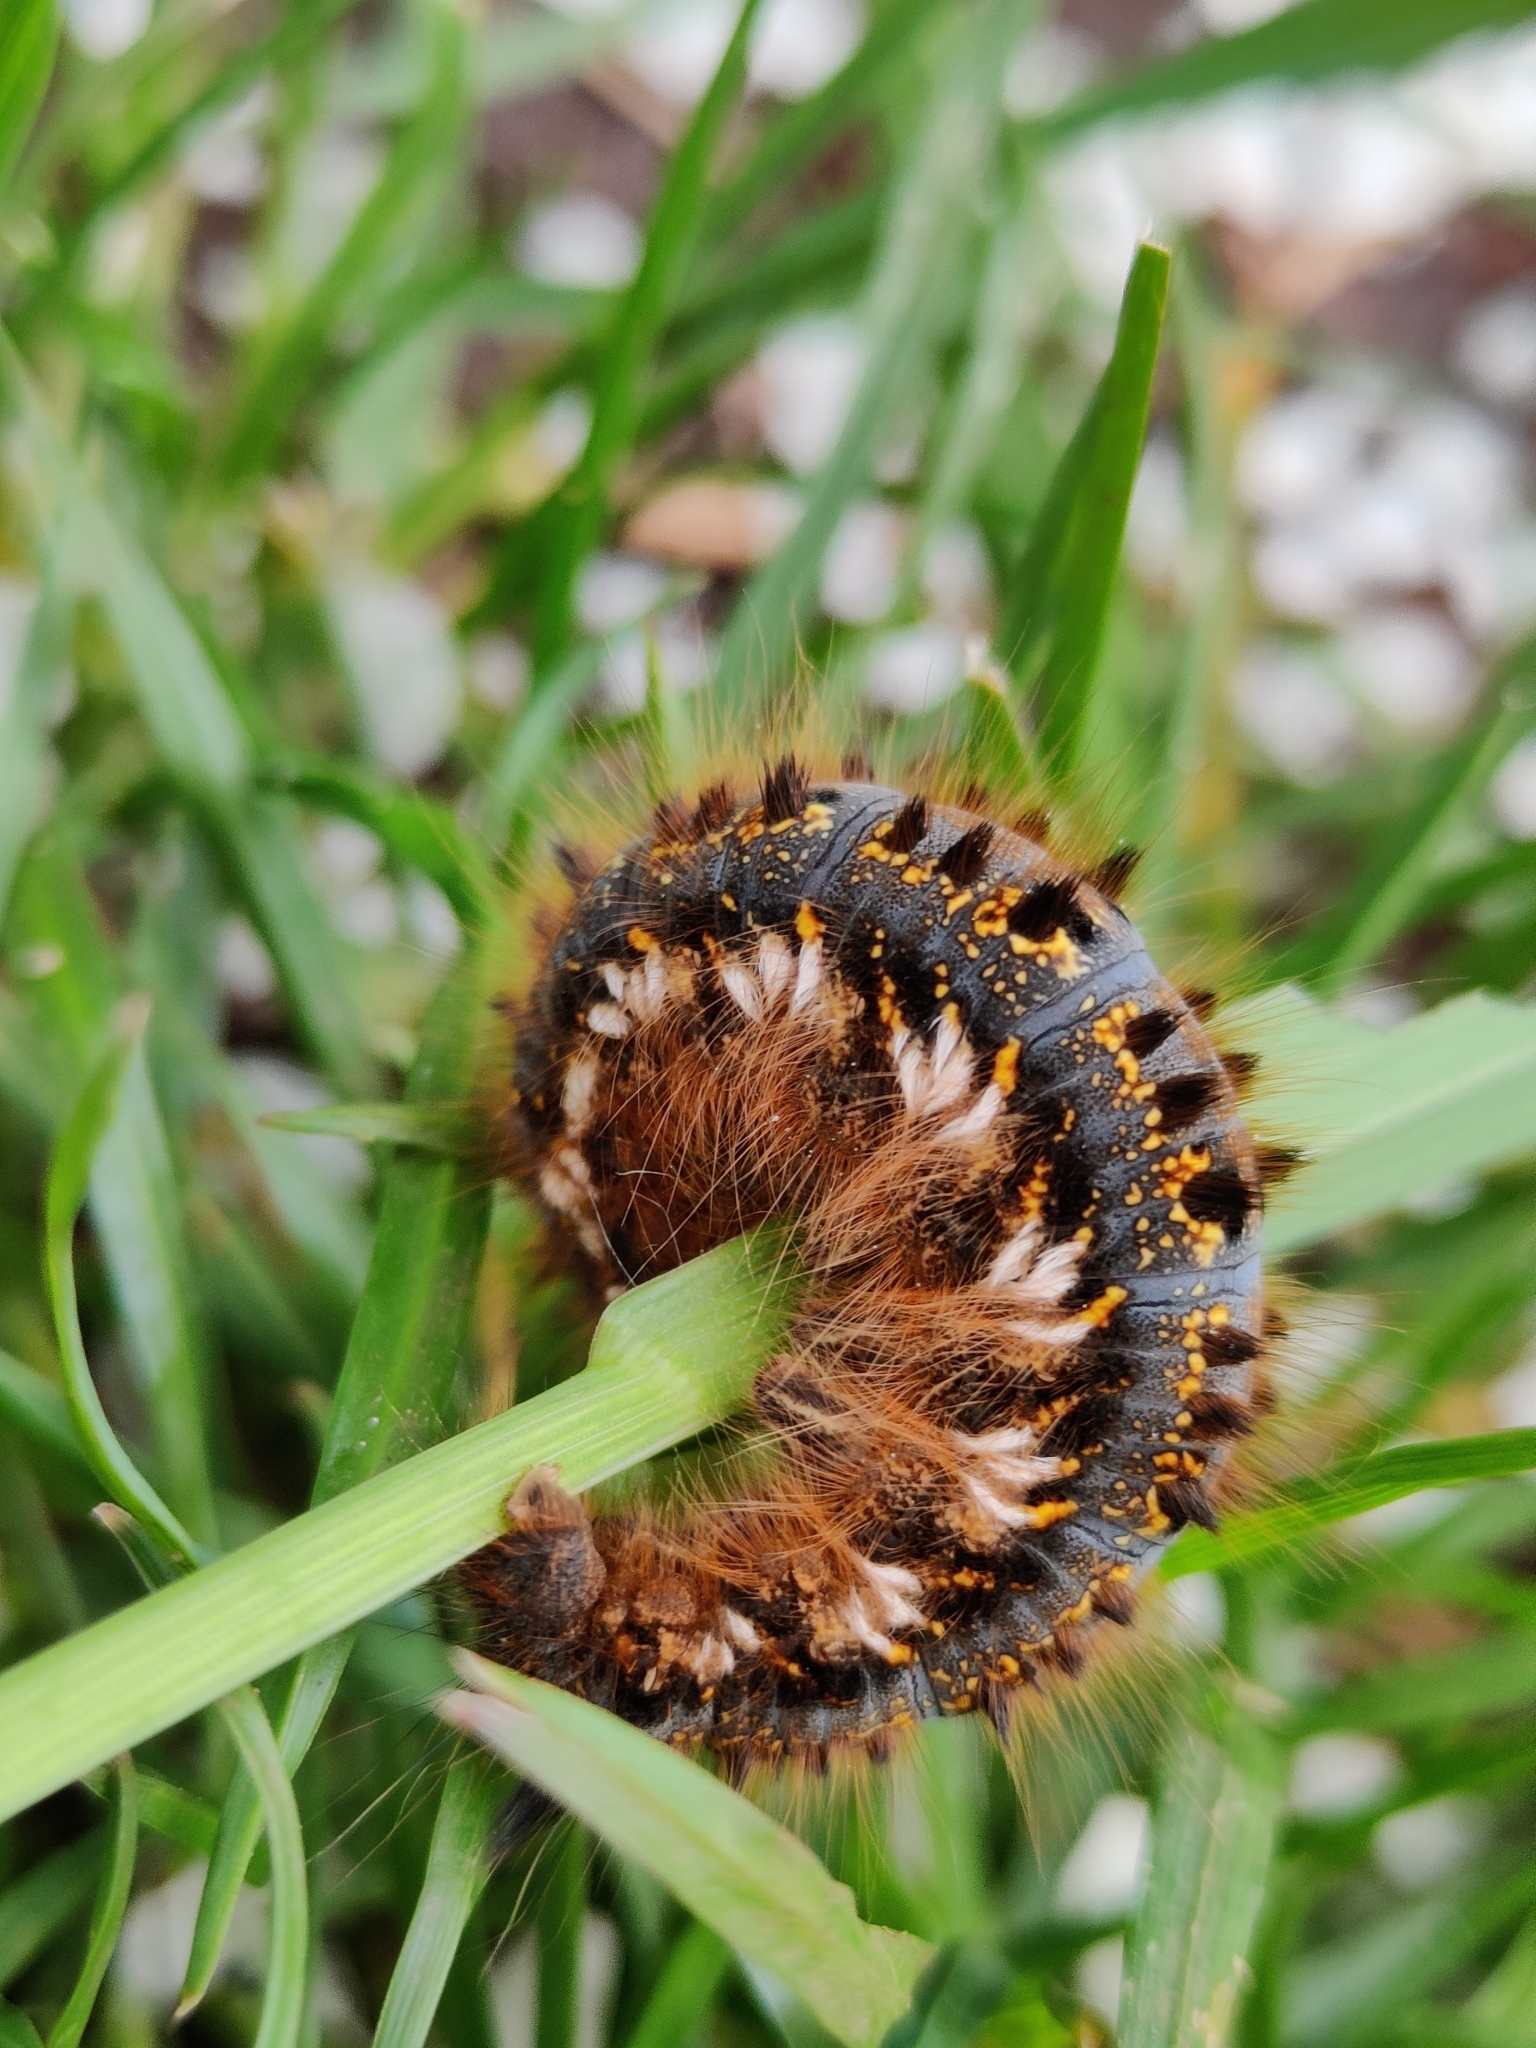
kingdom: Animalia
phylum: Arthropoda
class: Insecta
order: Lepidoptera
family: Lasiocampidae
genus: Euthrix
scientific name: Euthrix potatoria
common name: Drinker
